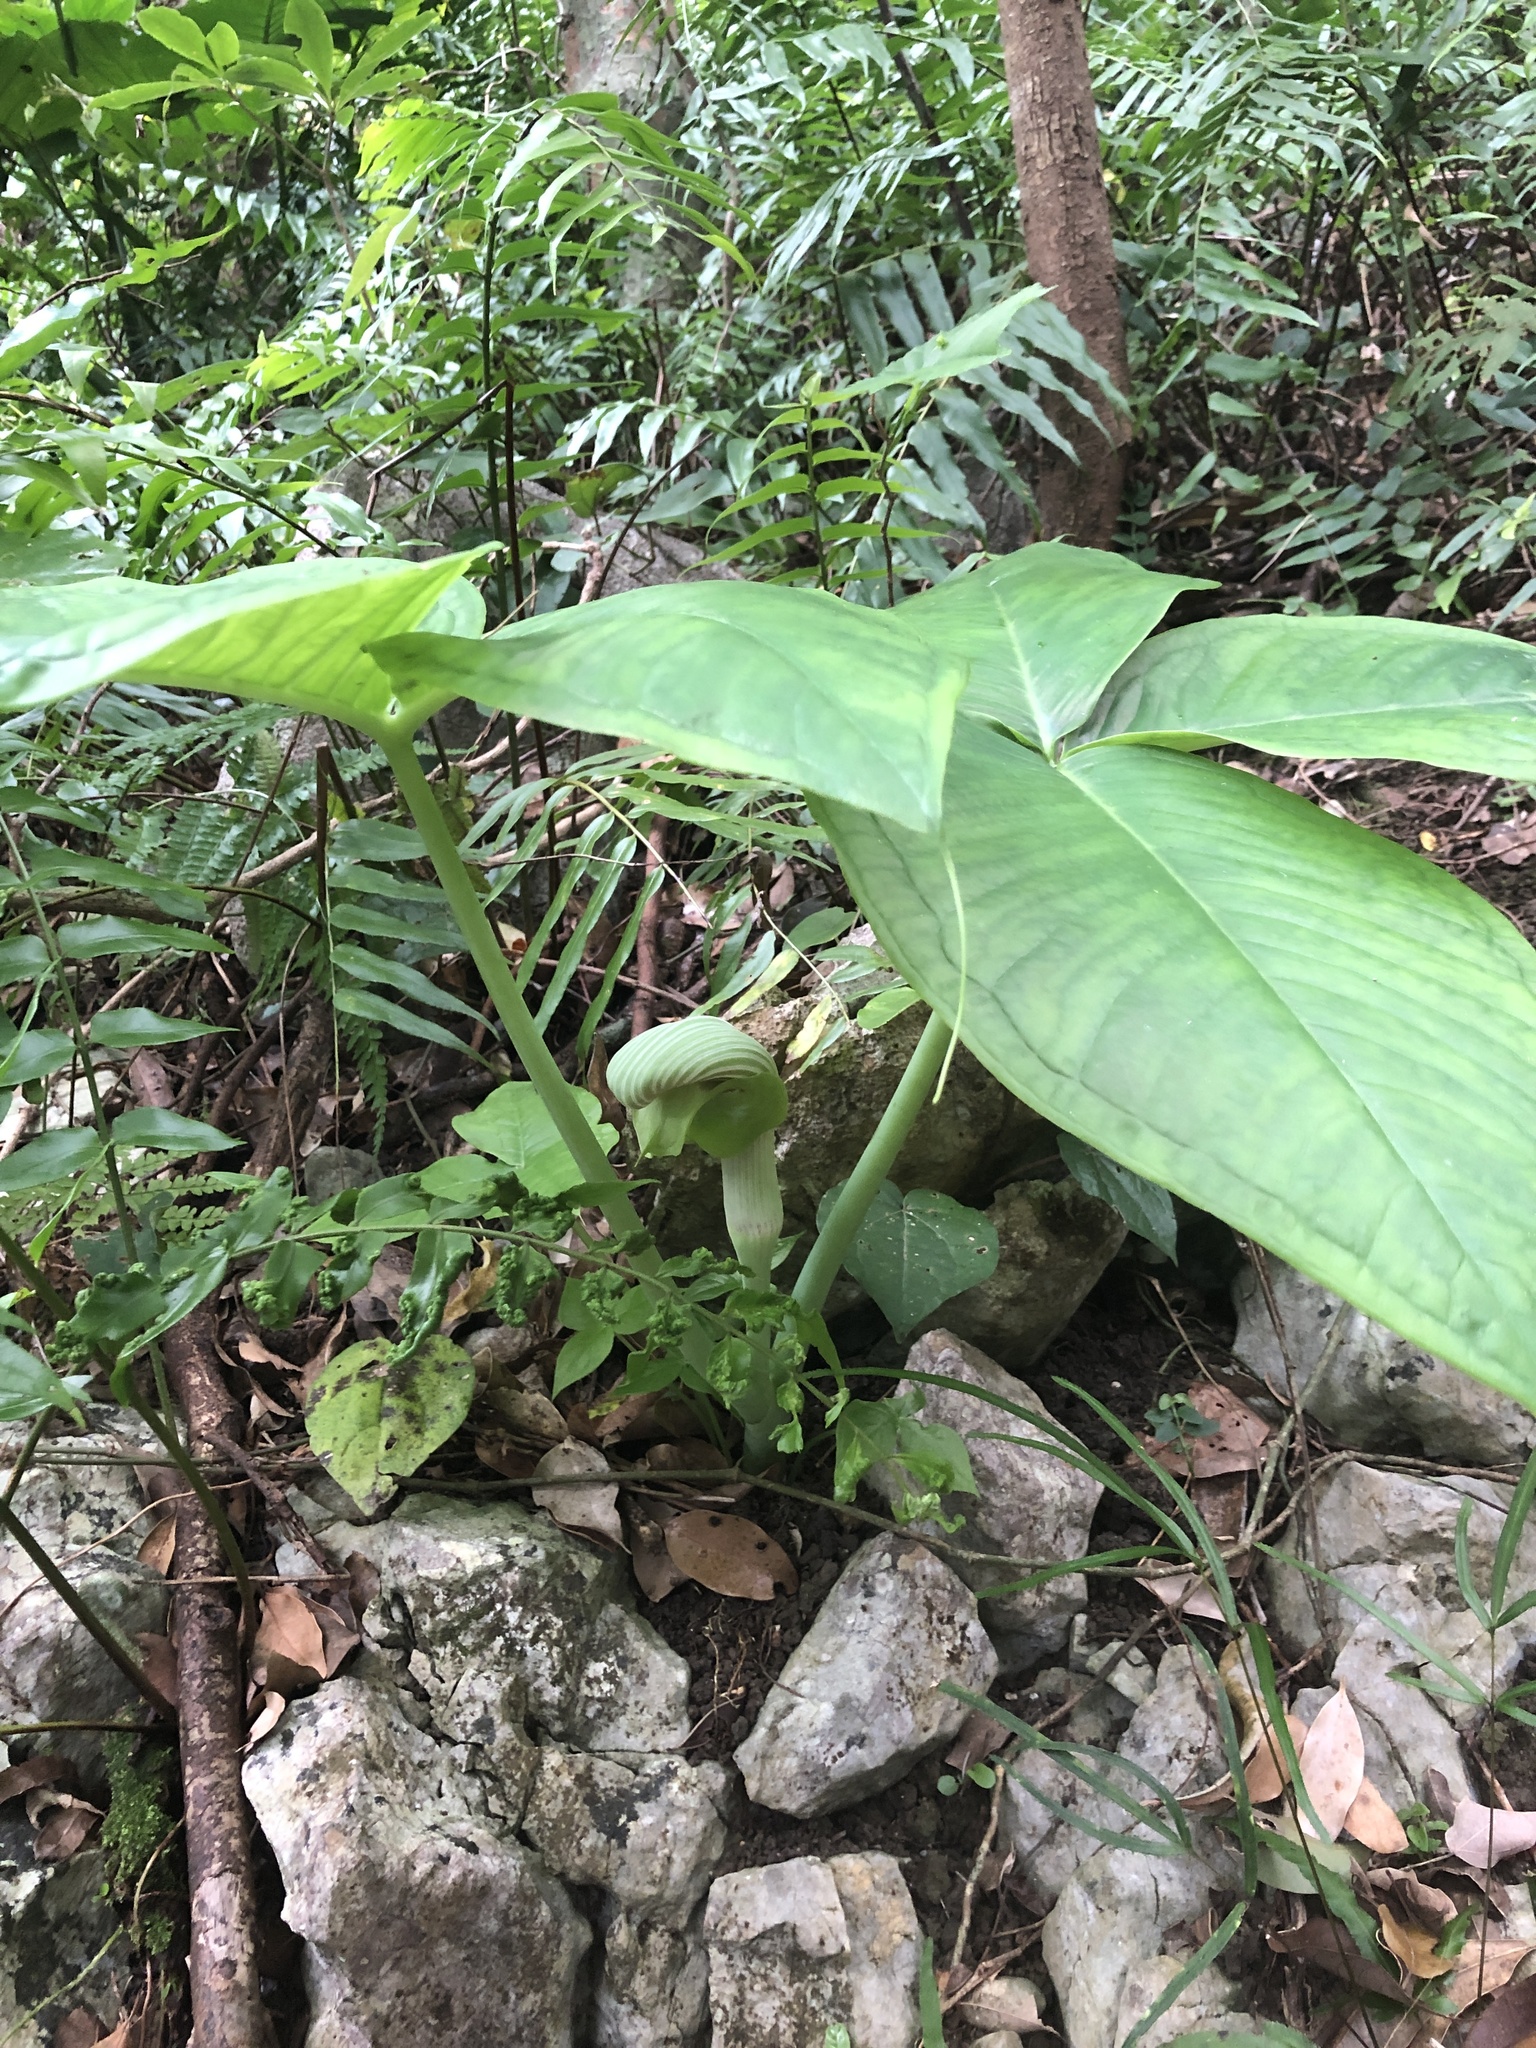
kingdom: Plantae
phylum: Tracheophyta
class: Liliopsida
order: Alismatales
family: Araceae
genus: Arisaema
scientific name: Arisaema ringens
